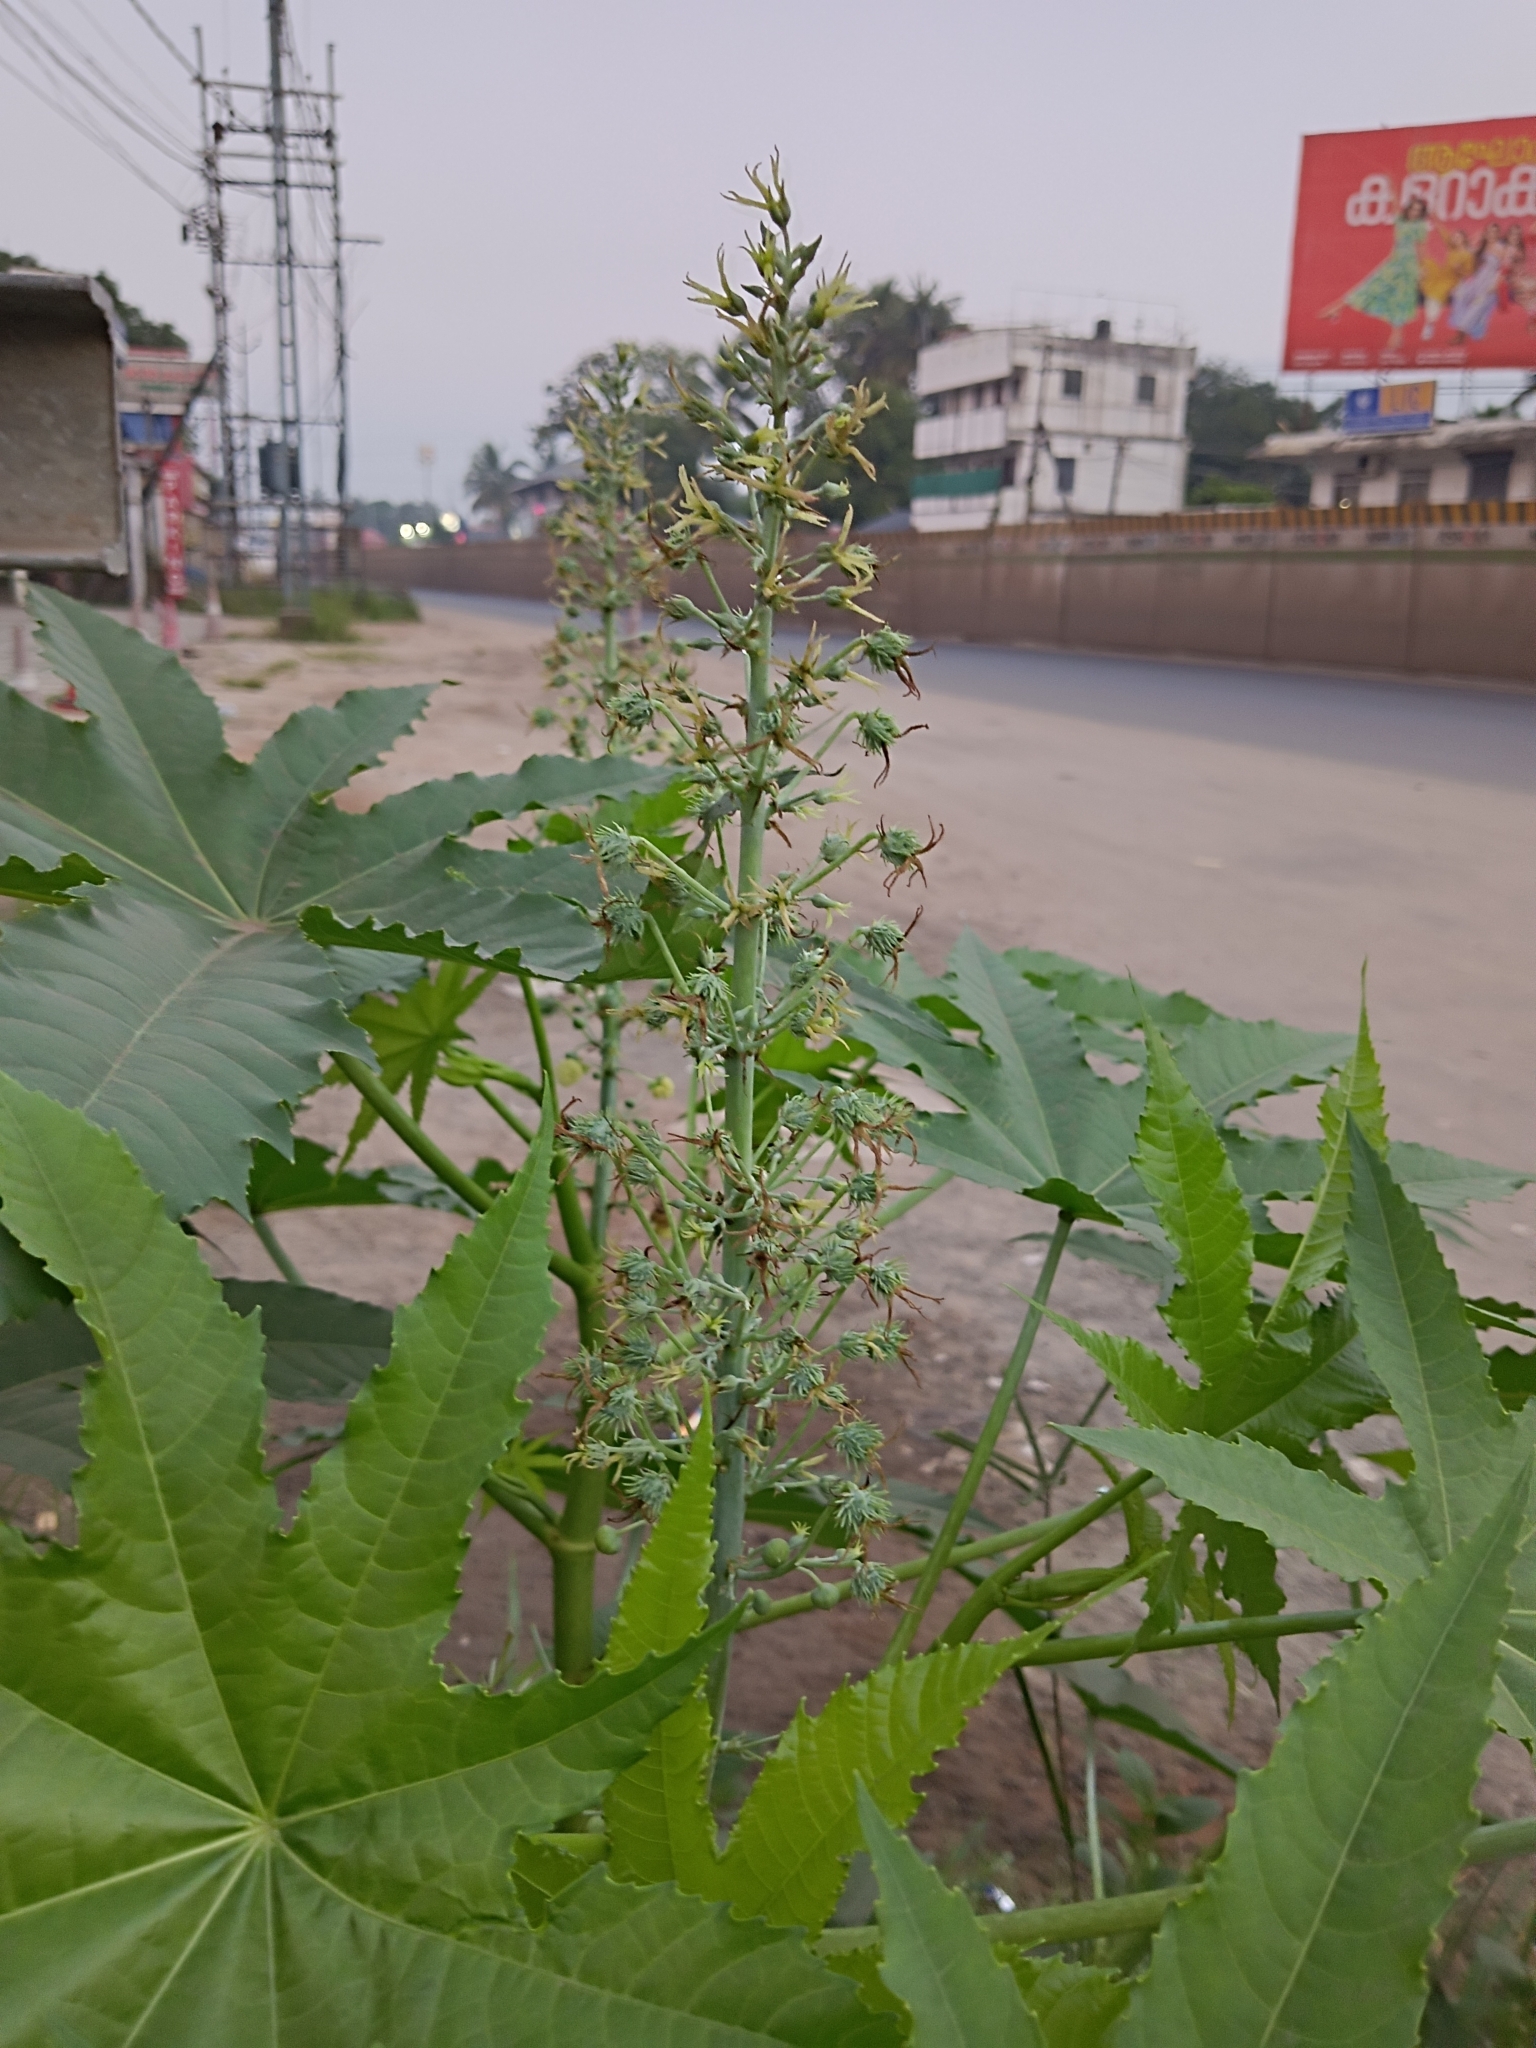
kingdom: Plantae
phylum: Tracheophyta
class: Magnoliopsida
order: Malpighiales
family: Euphorbiaceae
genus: Ricinus
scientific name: Ricinus communis
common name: Castor-oil-plant
